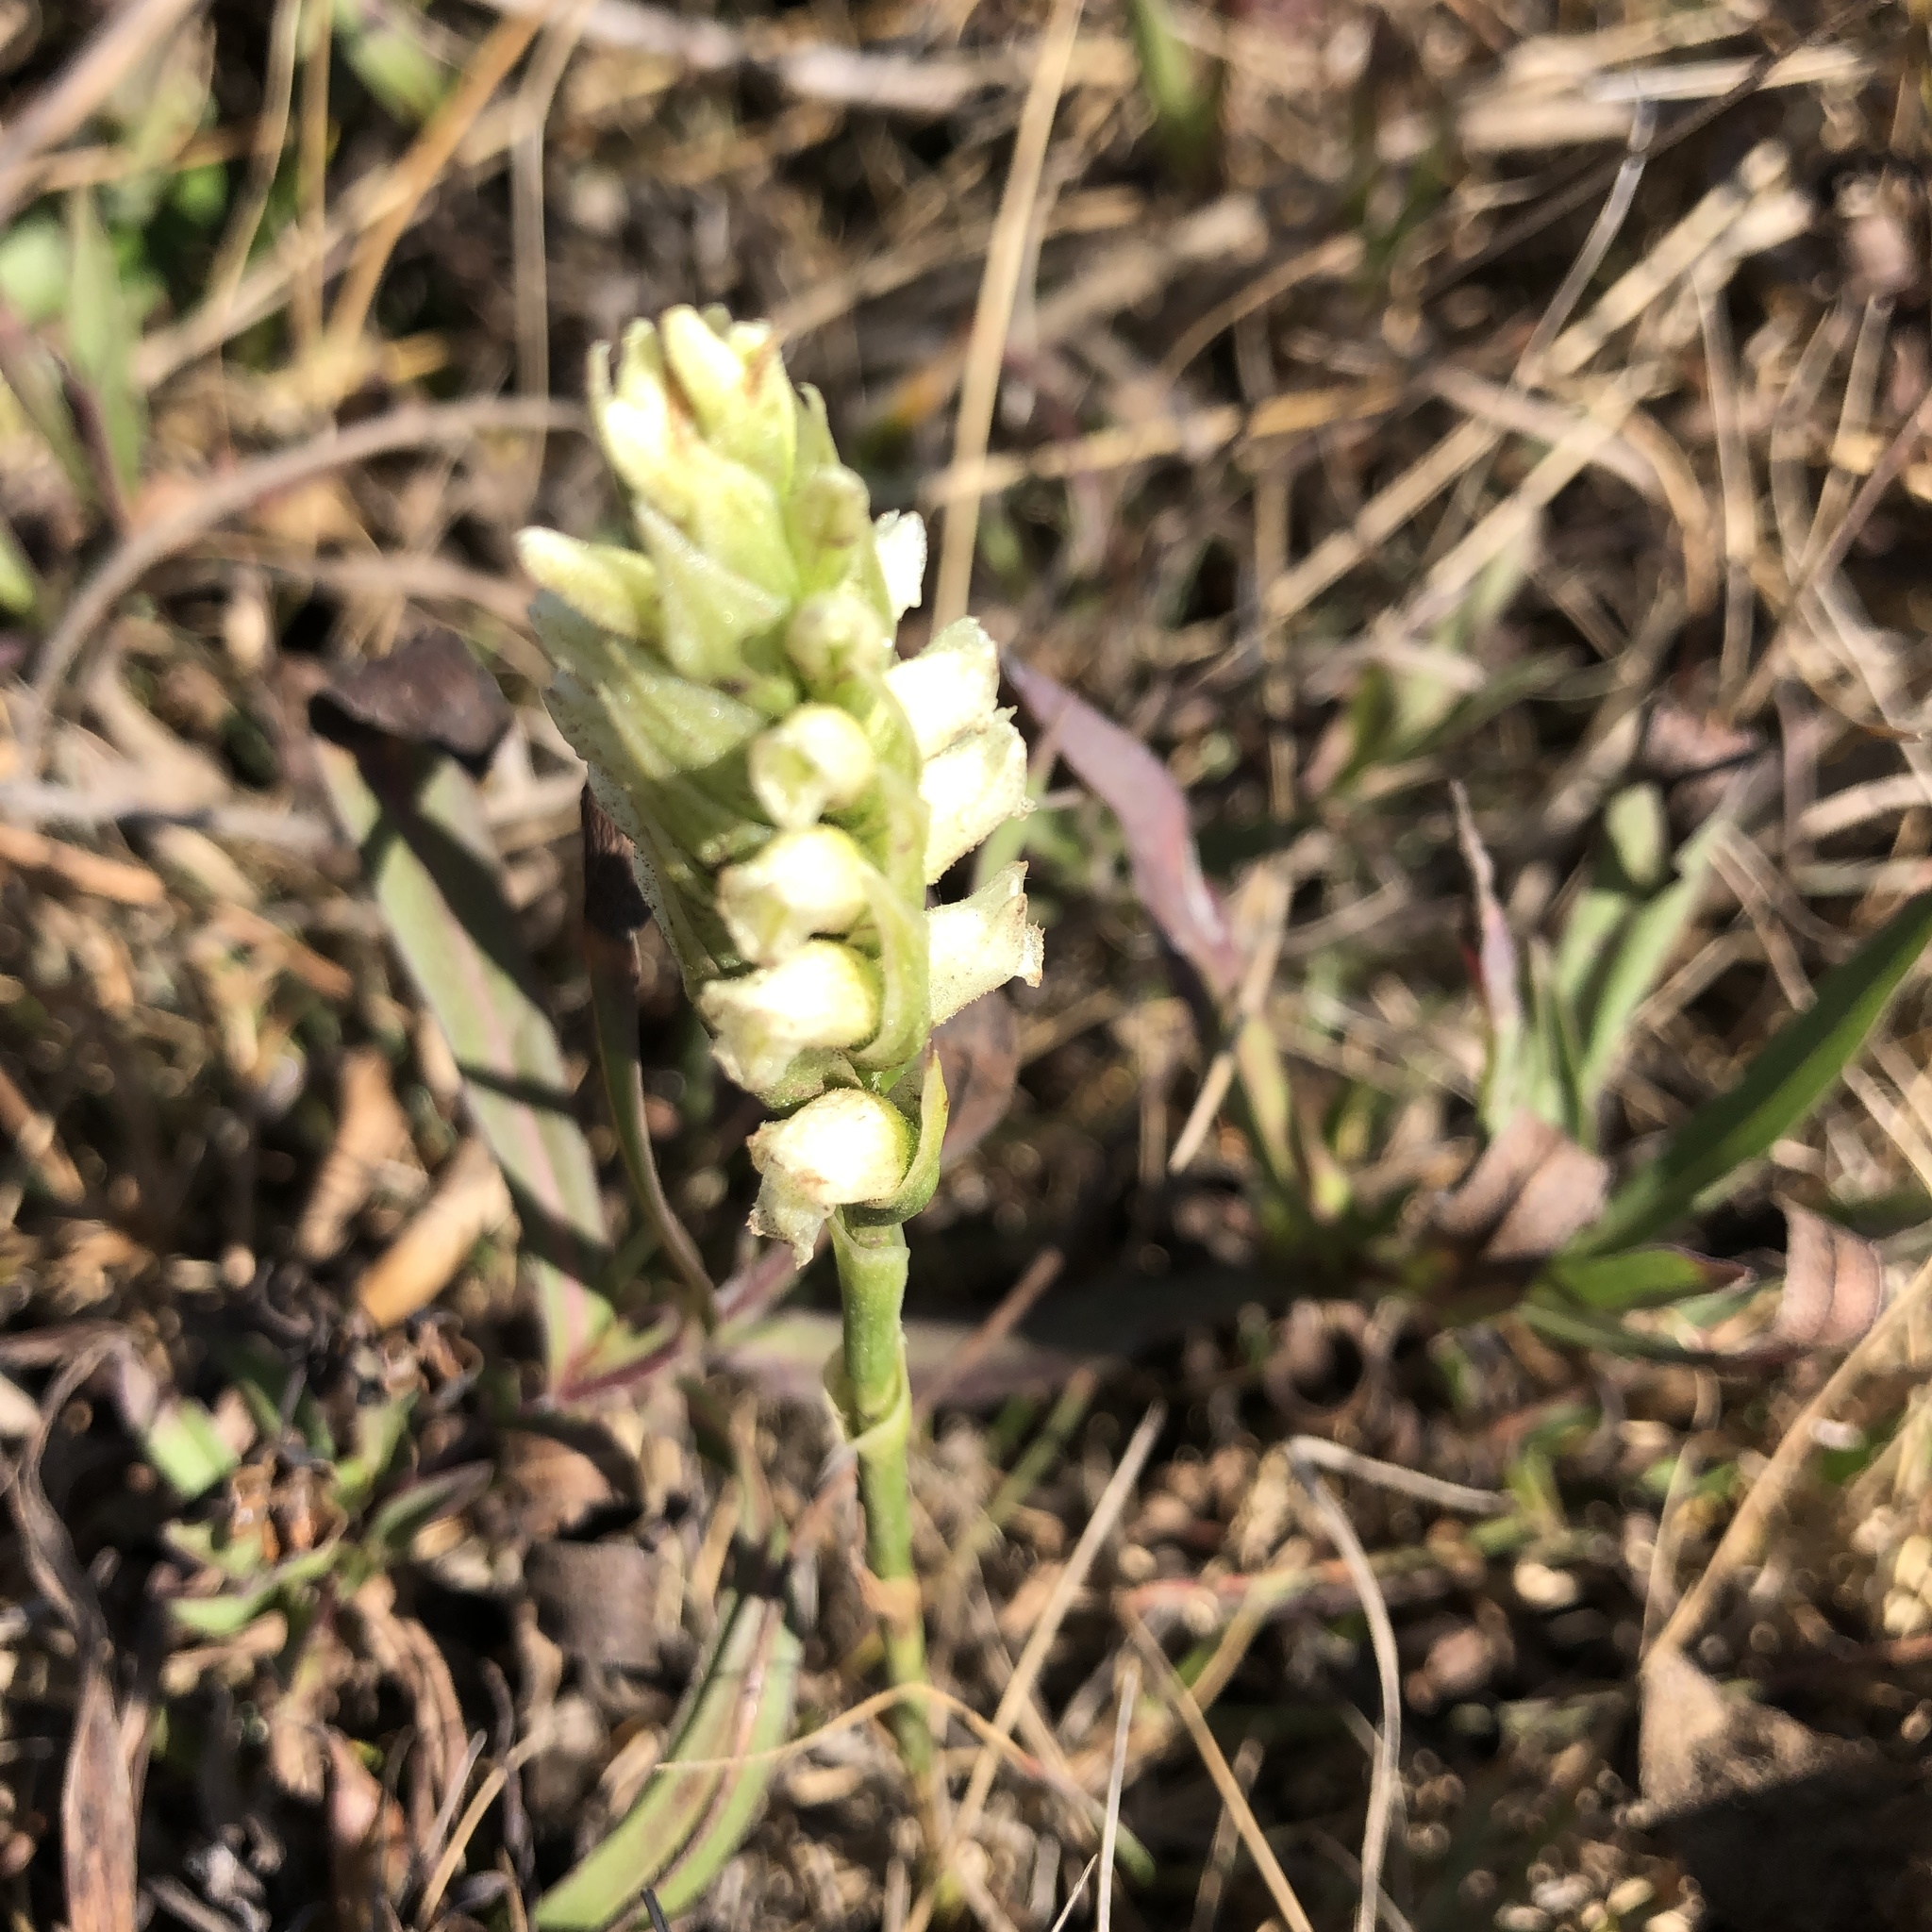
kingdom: Plantae
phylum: Tracheophyta
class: Liliopsida
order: Asparagales
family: Orchidaceae
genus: Spiranthes
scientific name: Spiranthes romanzoffiana
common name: Irish lady's-tresses
